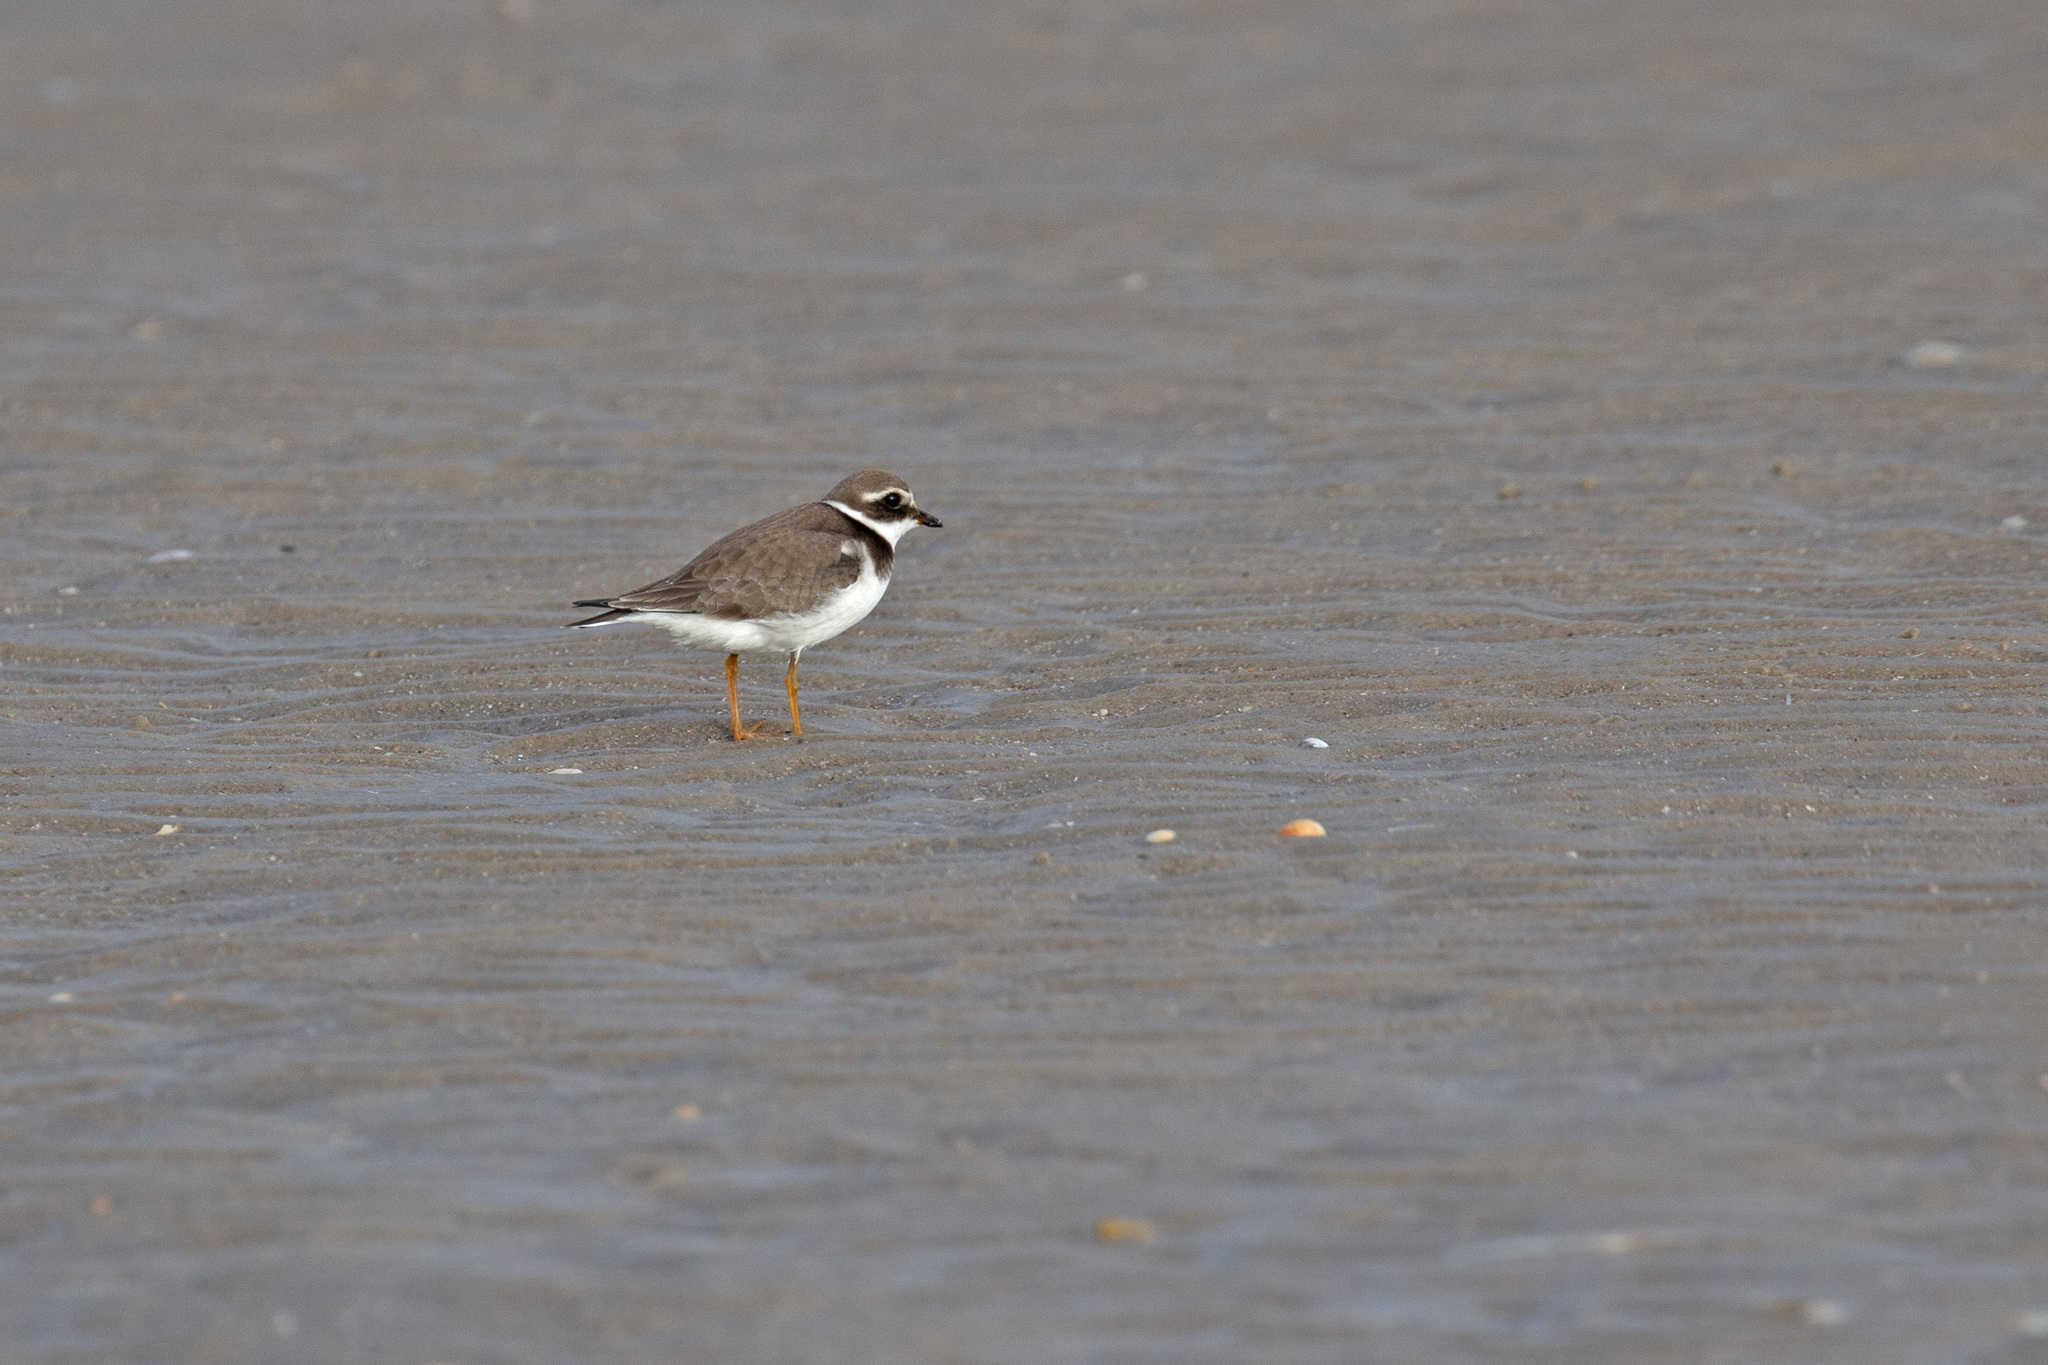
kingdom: Animalia
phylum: Chordata
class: Aves
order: Charadriiformes
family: Charadriidae
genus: Charadrius
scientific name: Charadrius hiaticula
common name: Common ringed plover
